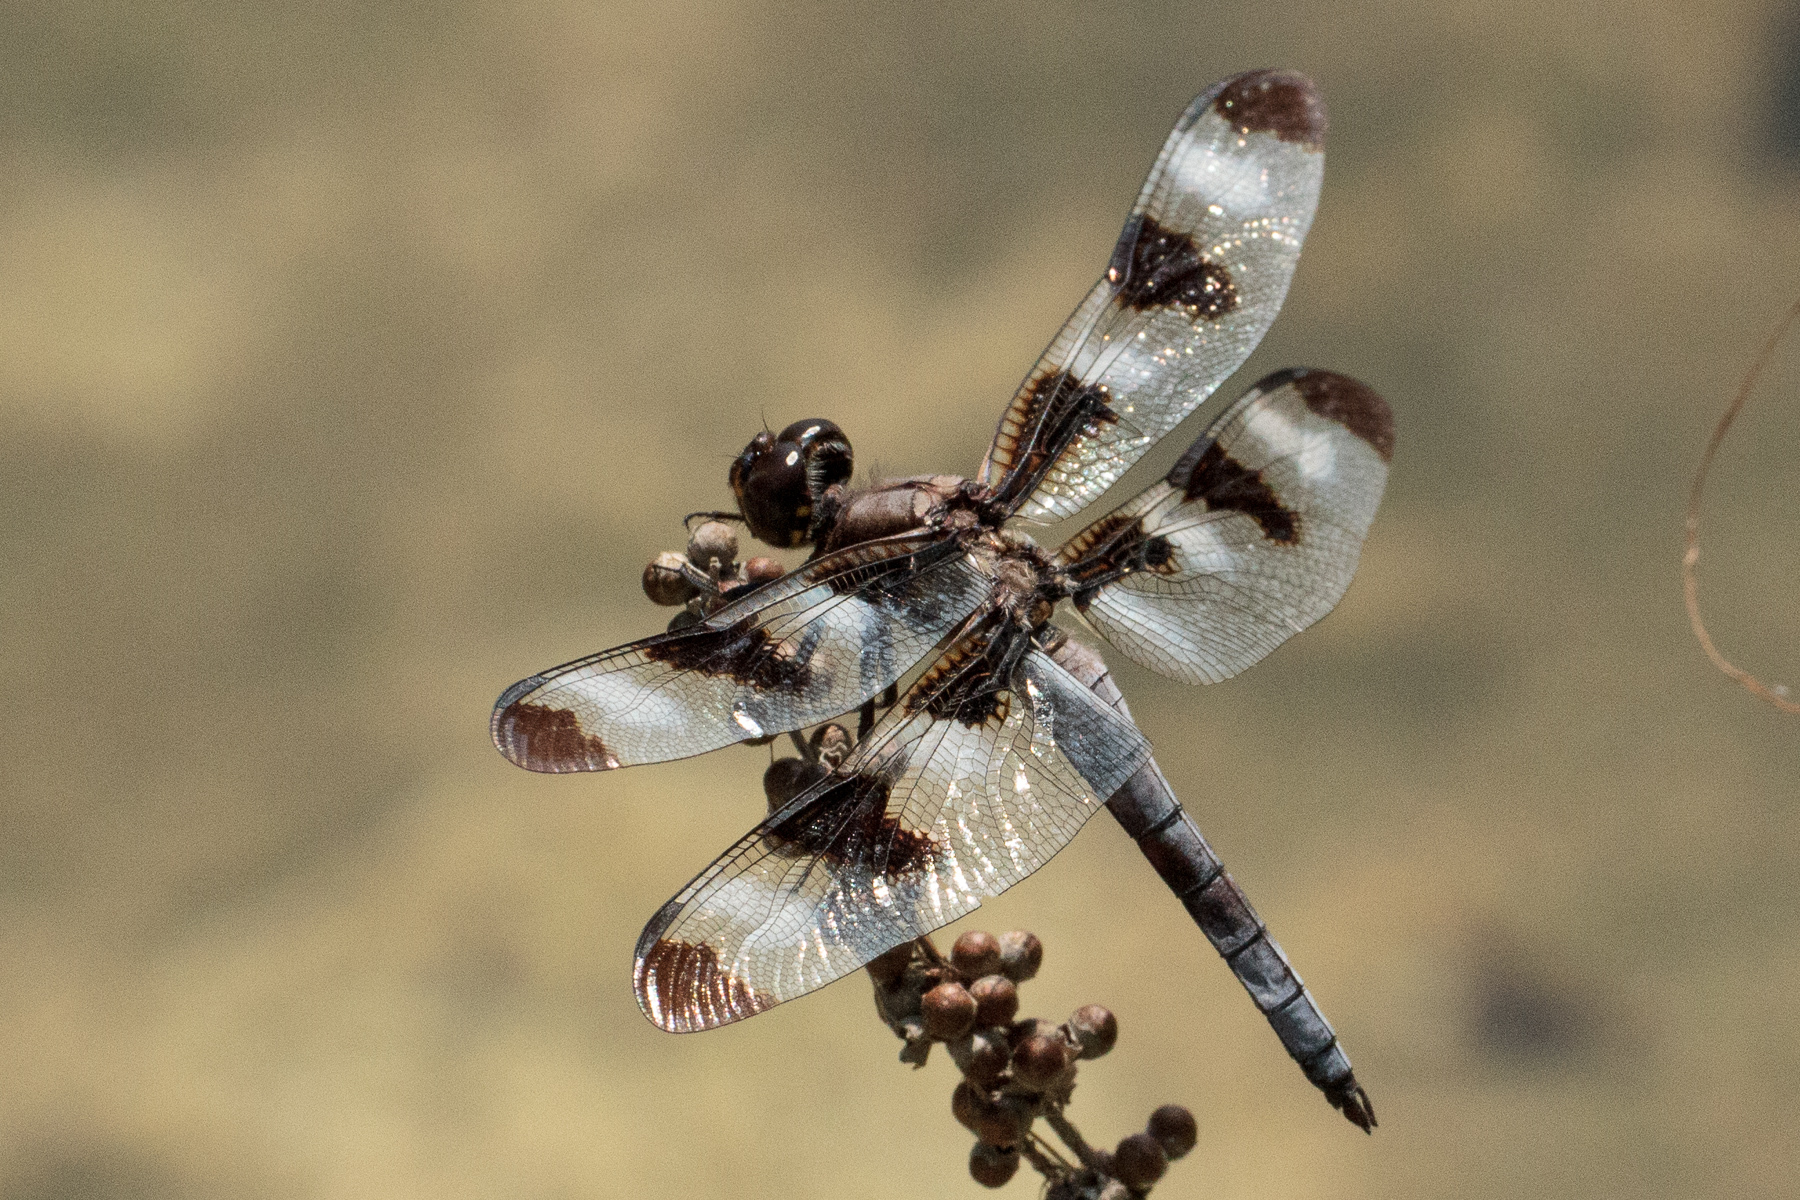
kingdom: Animalia
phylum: Arthropoda
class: Insecta
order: Odonata
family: Libellulidae
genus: Libellula
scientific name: Libellula pulchella
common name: Twelve-spotted skimmer
